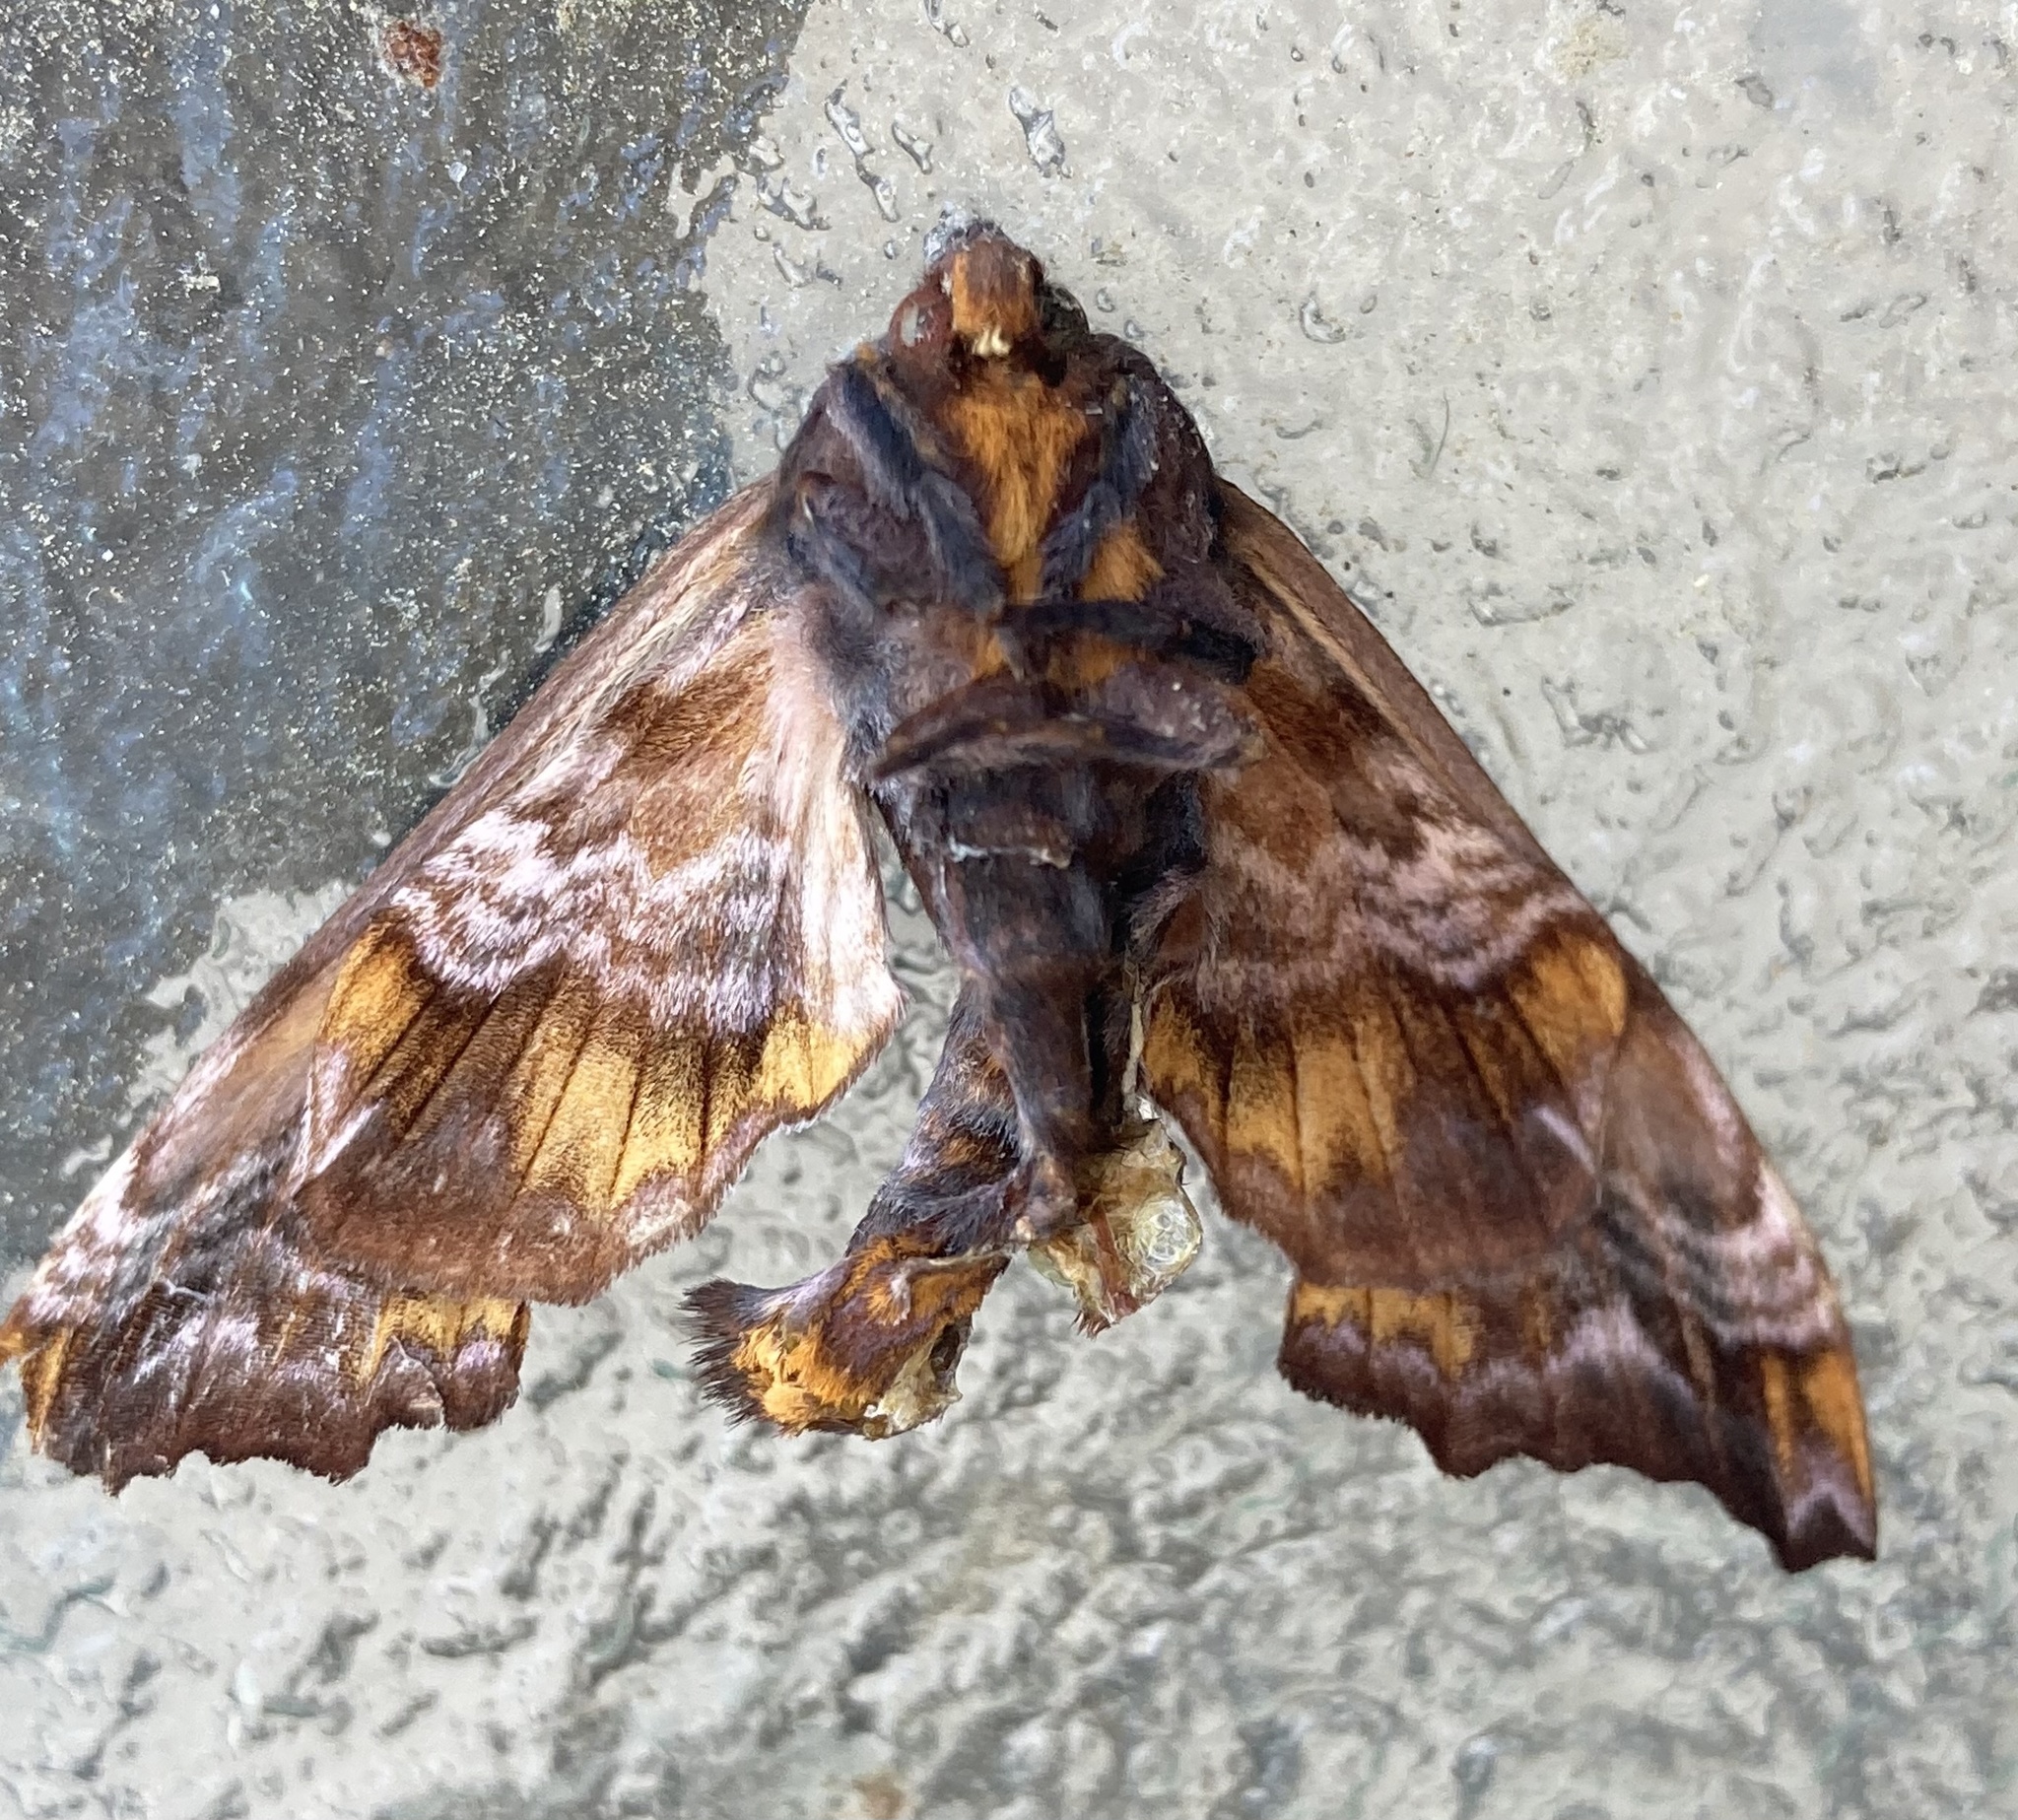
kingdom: Animalia
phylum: Arthropoda
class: Insecta
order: Lepidoptera
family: Sphingidae
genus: Paonias
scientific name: Paonias myops
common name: Small-eyed sphinx
